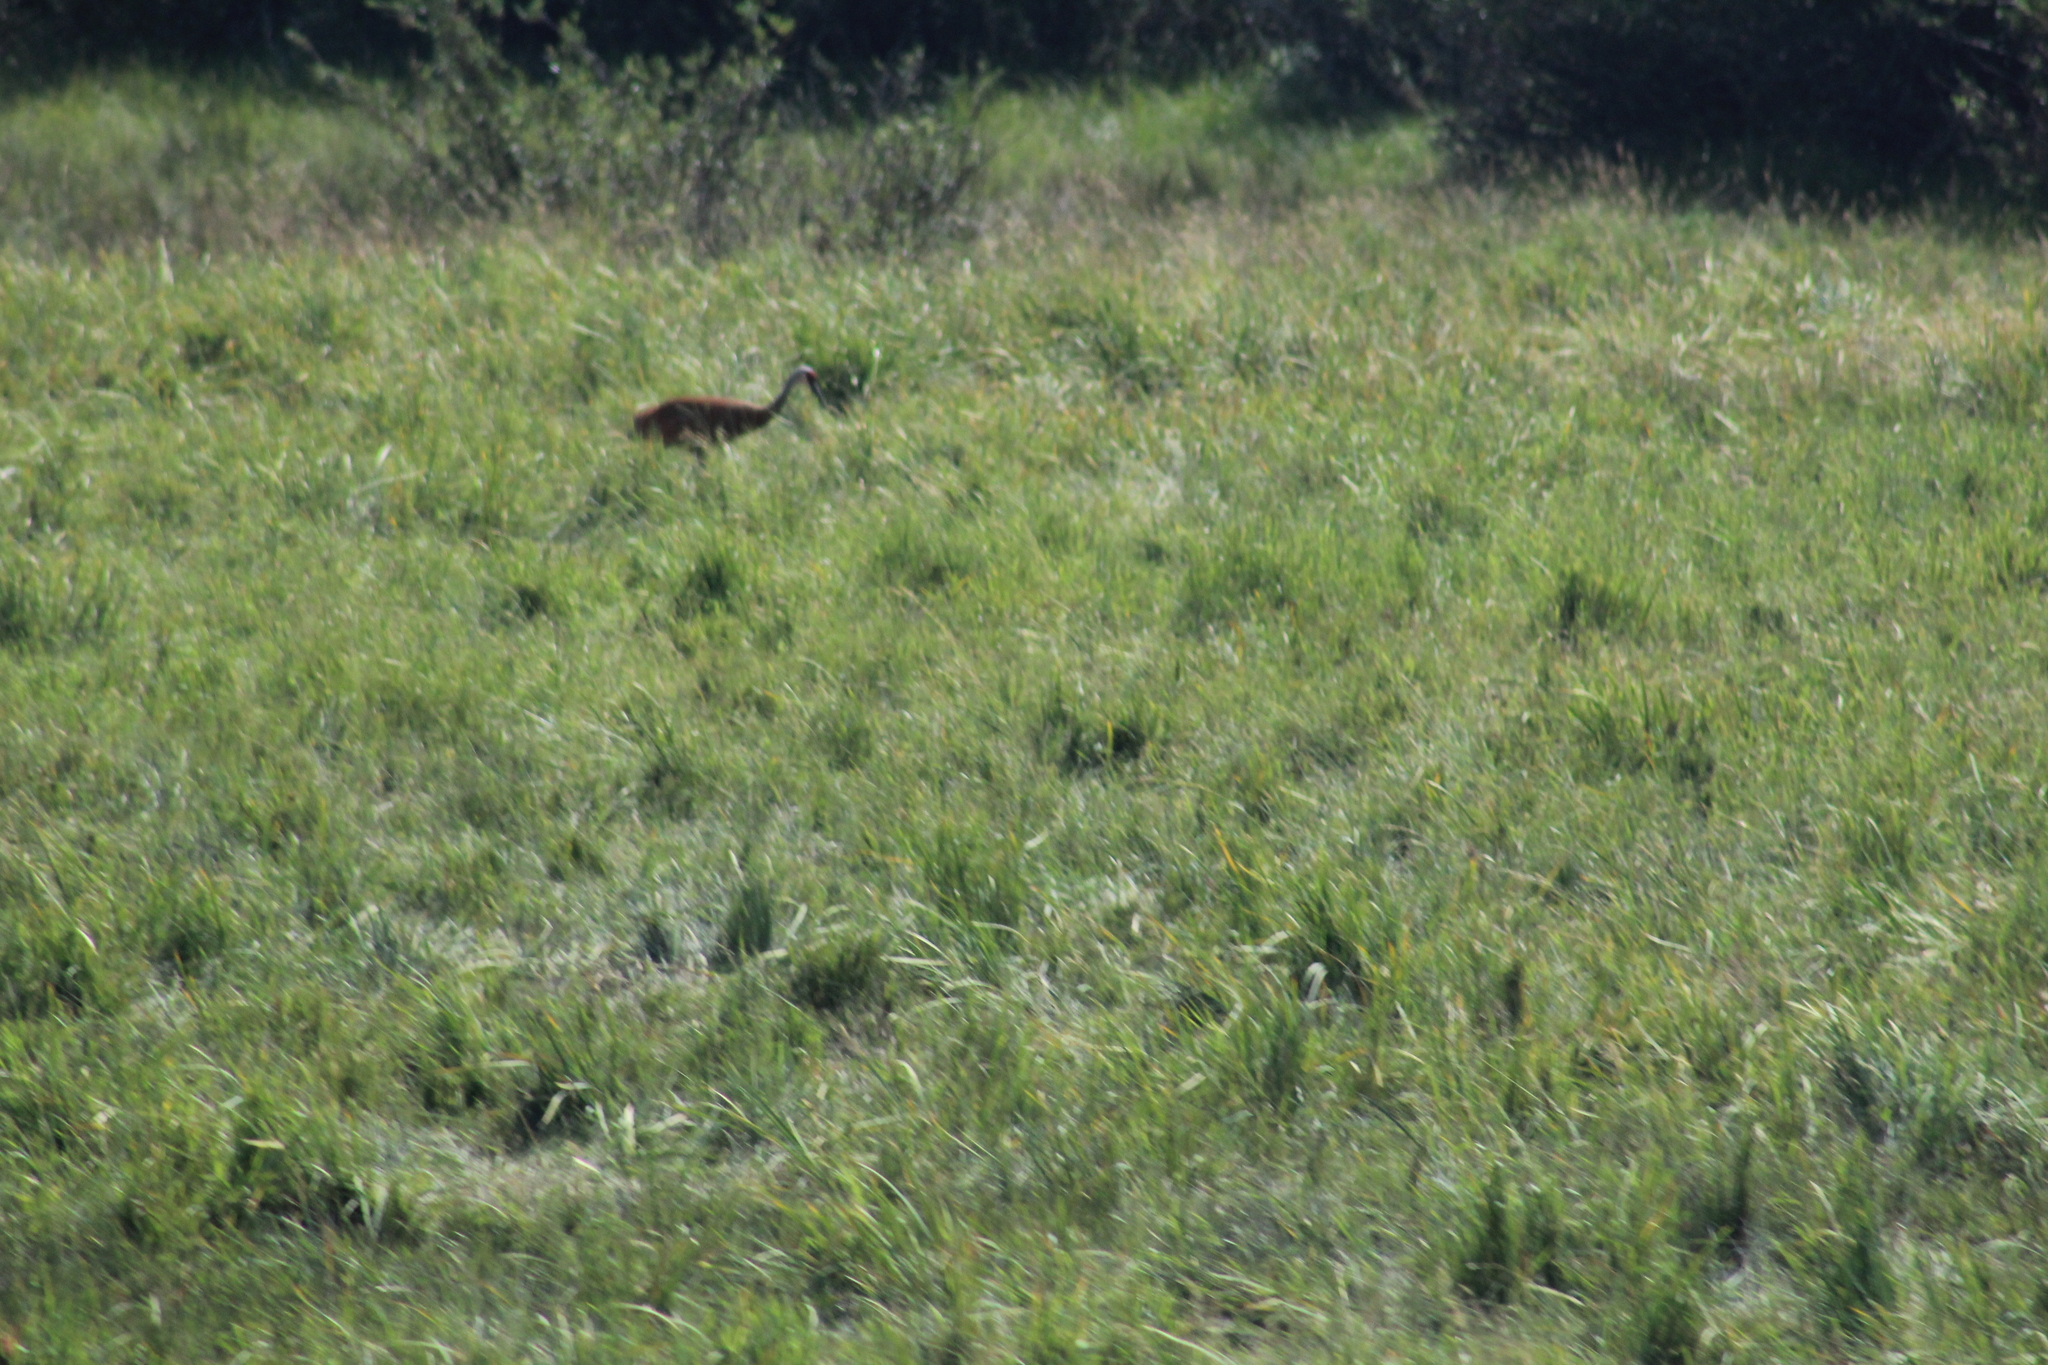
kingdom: Animalia
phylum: Chordata
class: Aves
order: Gruiformes
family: Gruidae
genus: Grus
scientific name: Grus canadensis
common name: Sandhill crane
